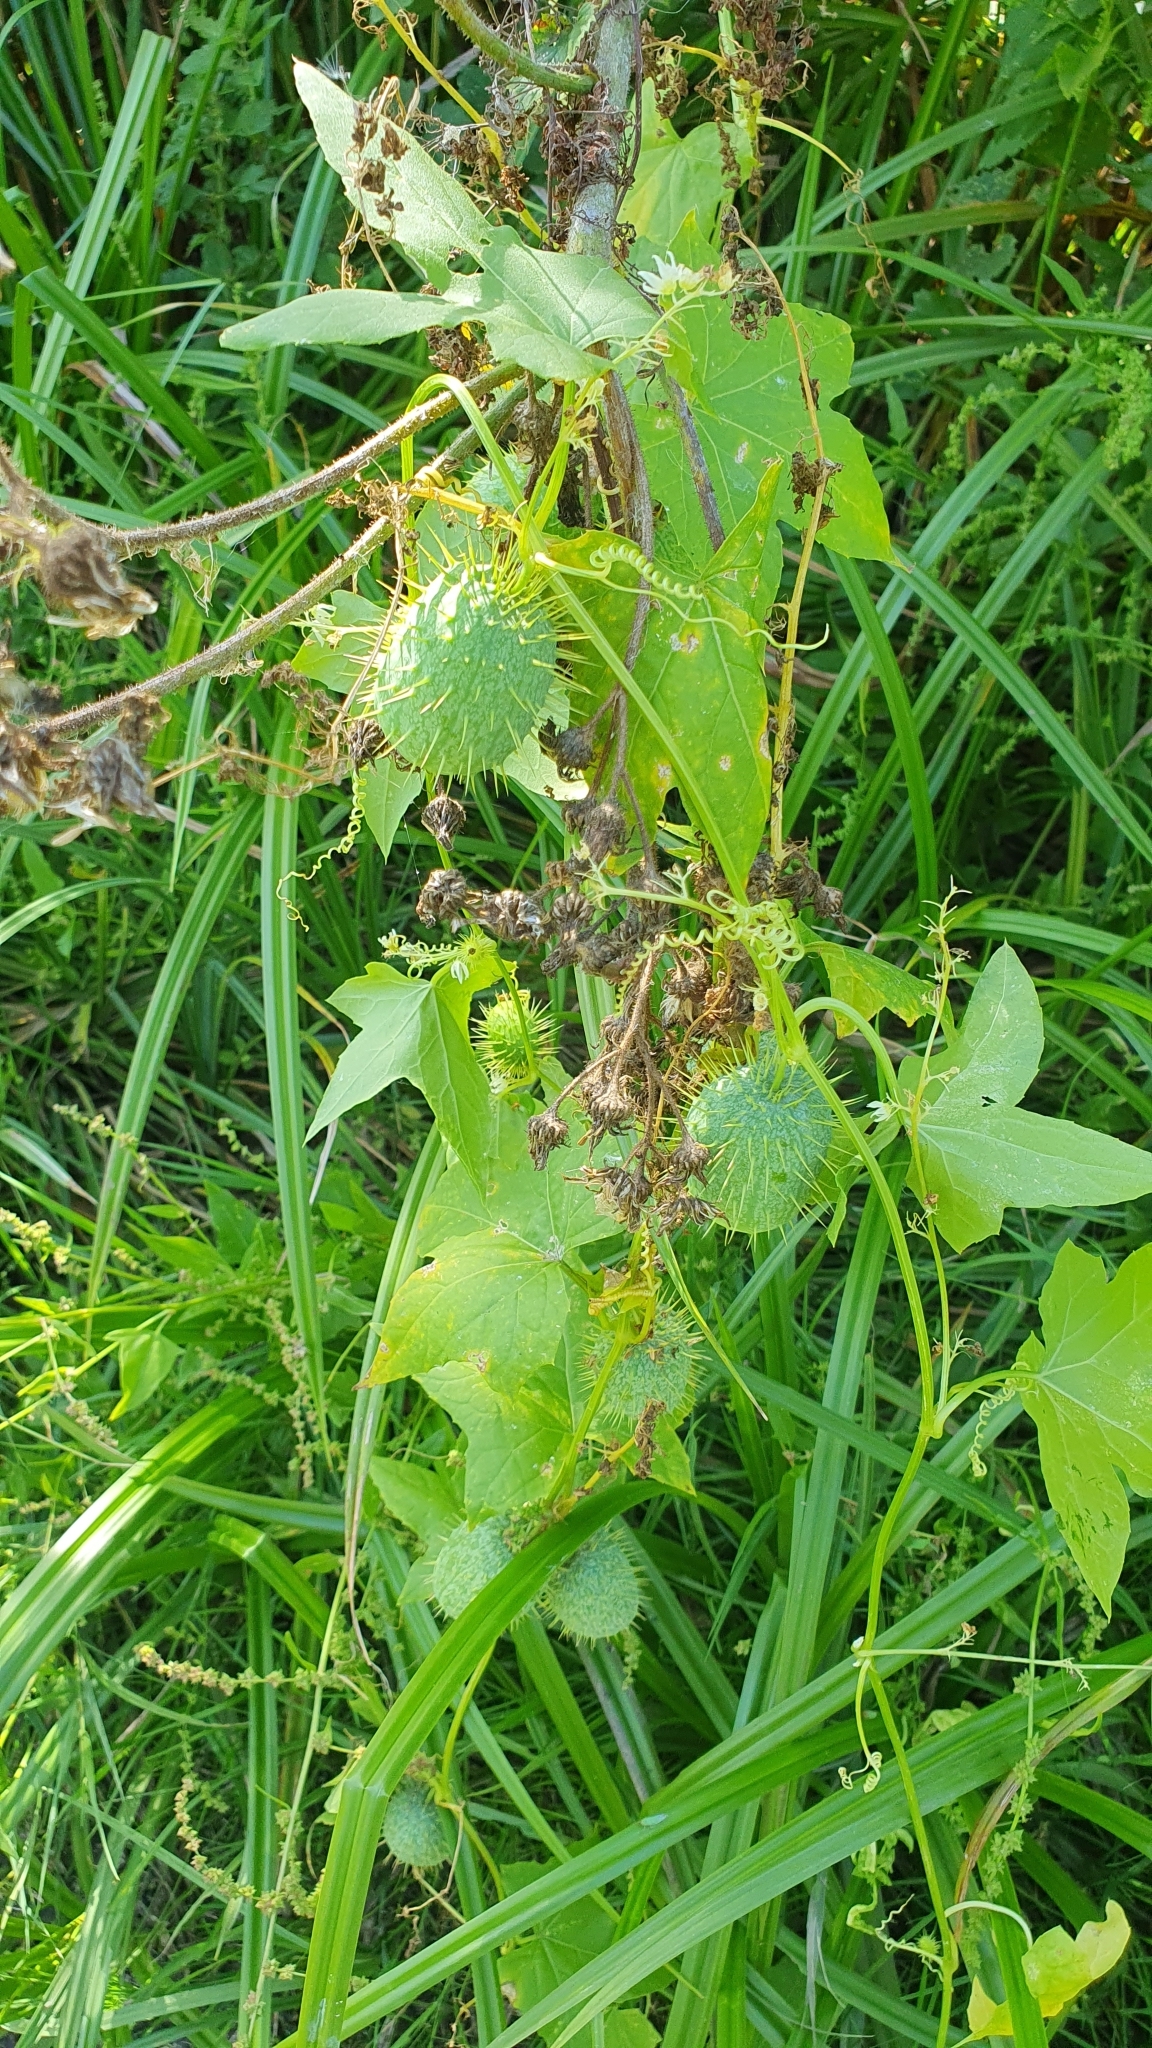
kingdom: Plantae
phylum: Tracheophyta
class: Magnoliopsida
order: Cucurbitales
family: Cucurbitaceae
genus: Echinocystis
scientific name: Echinocystis lobata
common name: Wild cucumber
